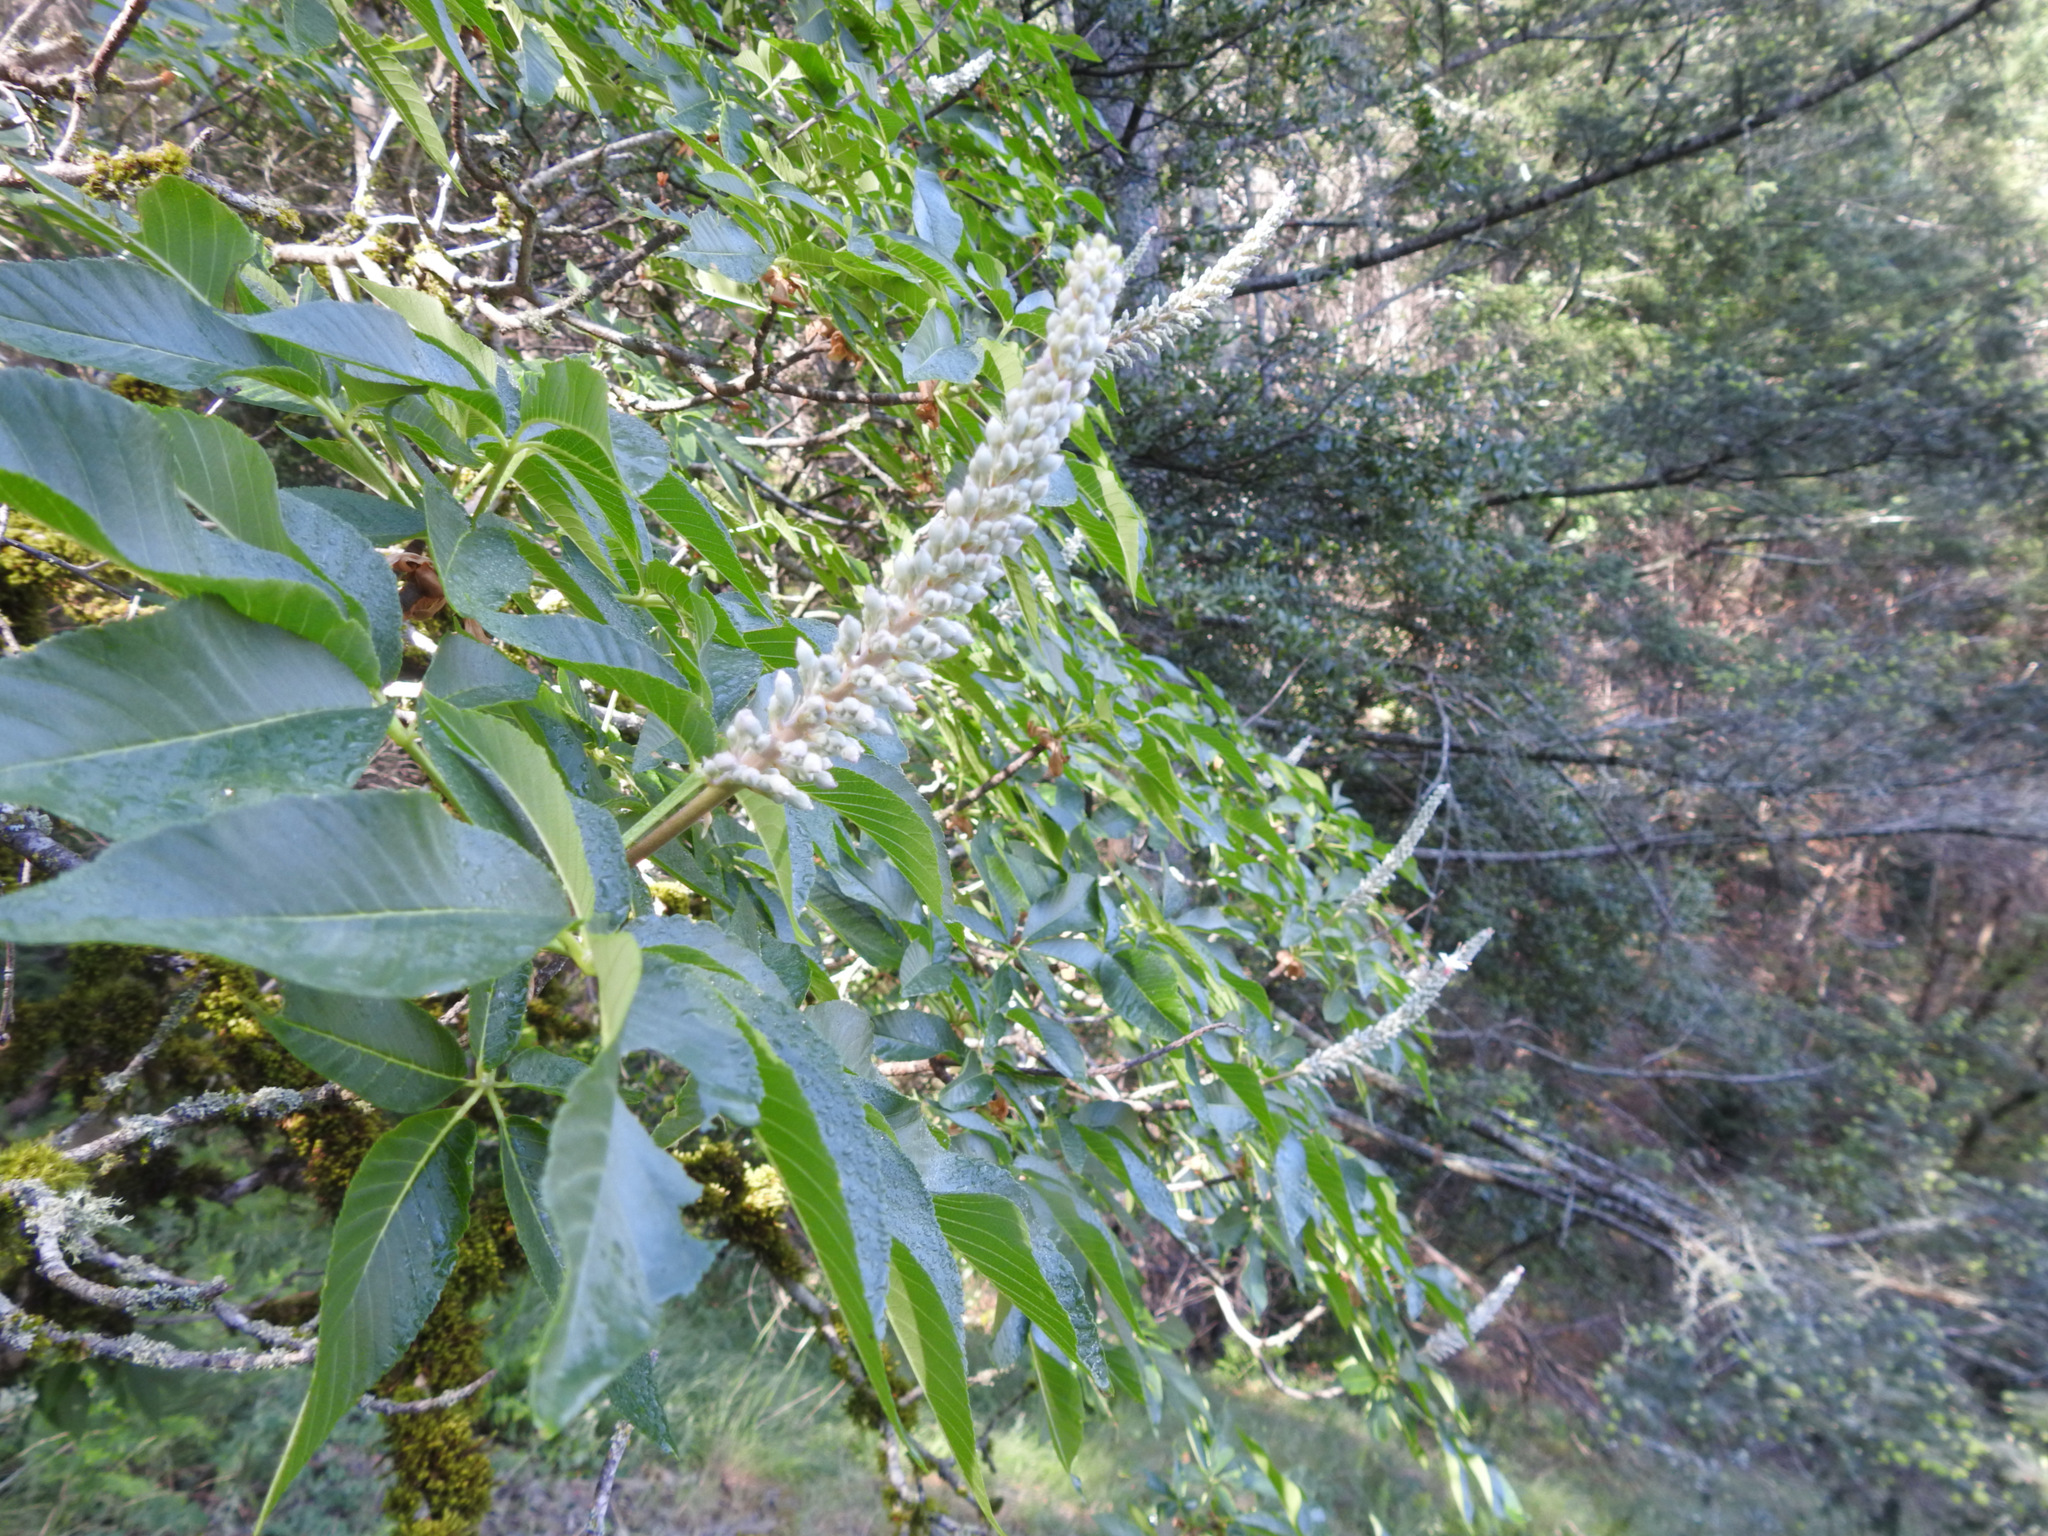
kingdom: Plantae
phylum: Tracheophyta
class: Magnoliopsida
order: Sapindales
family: Sapindaceae
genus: Aesculus
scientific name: Aesculus californica
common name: California buckeye
